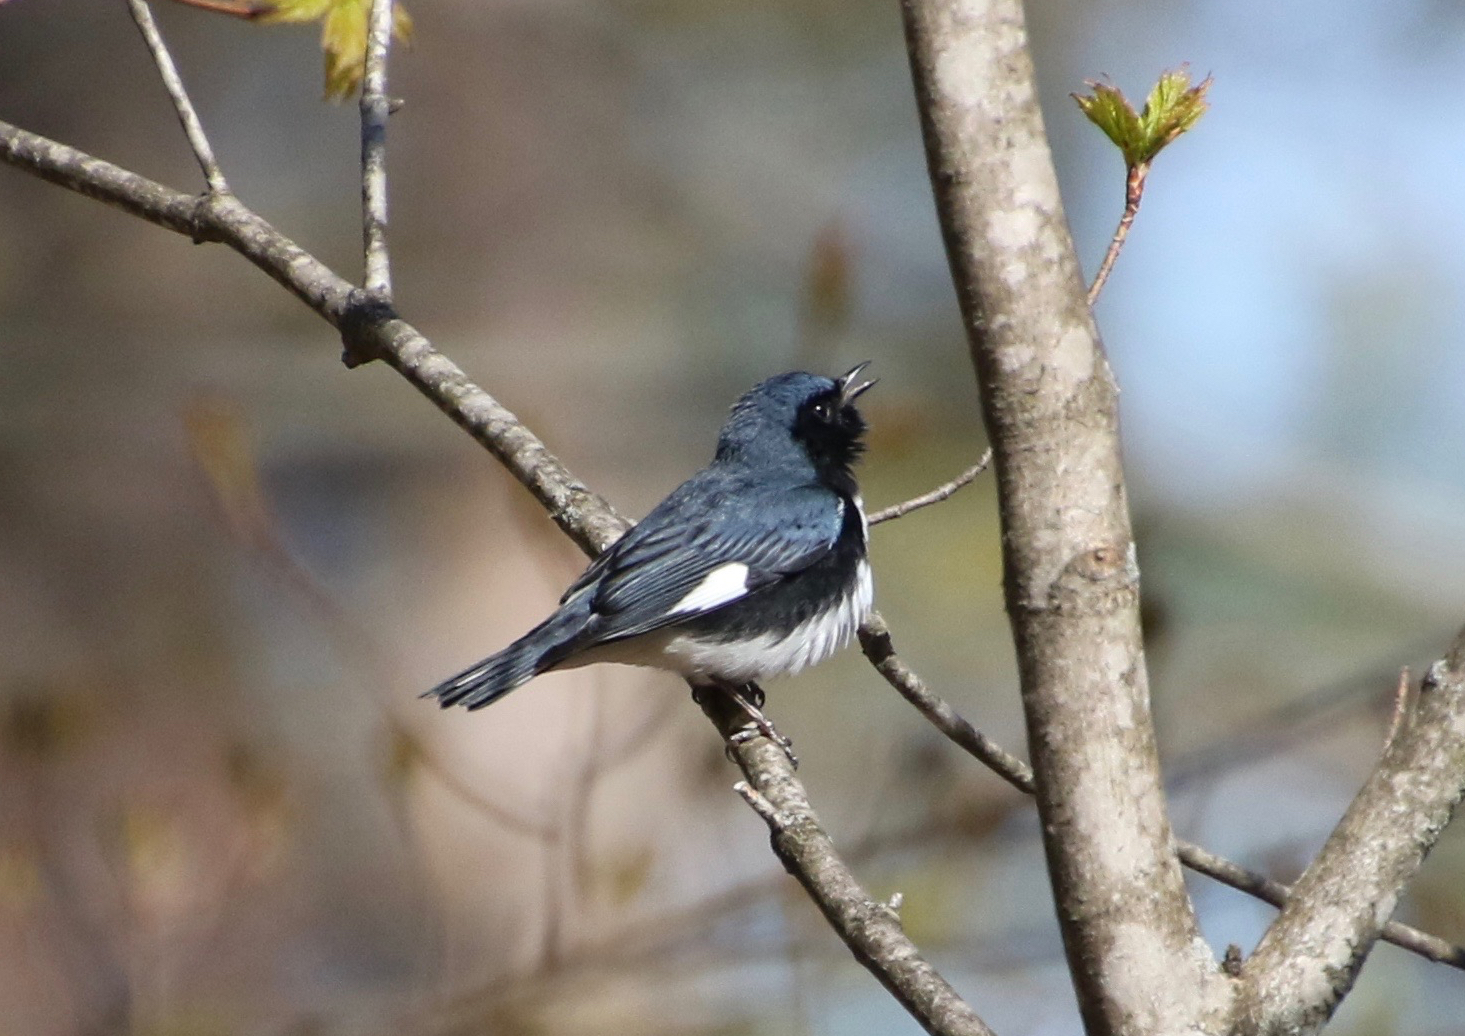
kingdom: Animalia
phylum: Chordata
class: Aves
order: Passeriformes
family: Parulidae
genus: Setophaga
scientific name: Setophaga caerulescens
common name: Black-throated blue warbler
